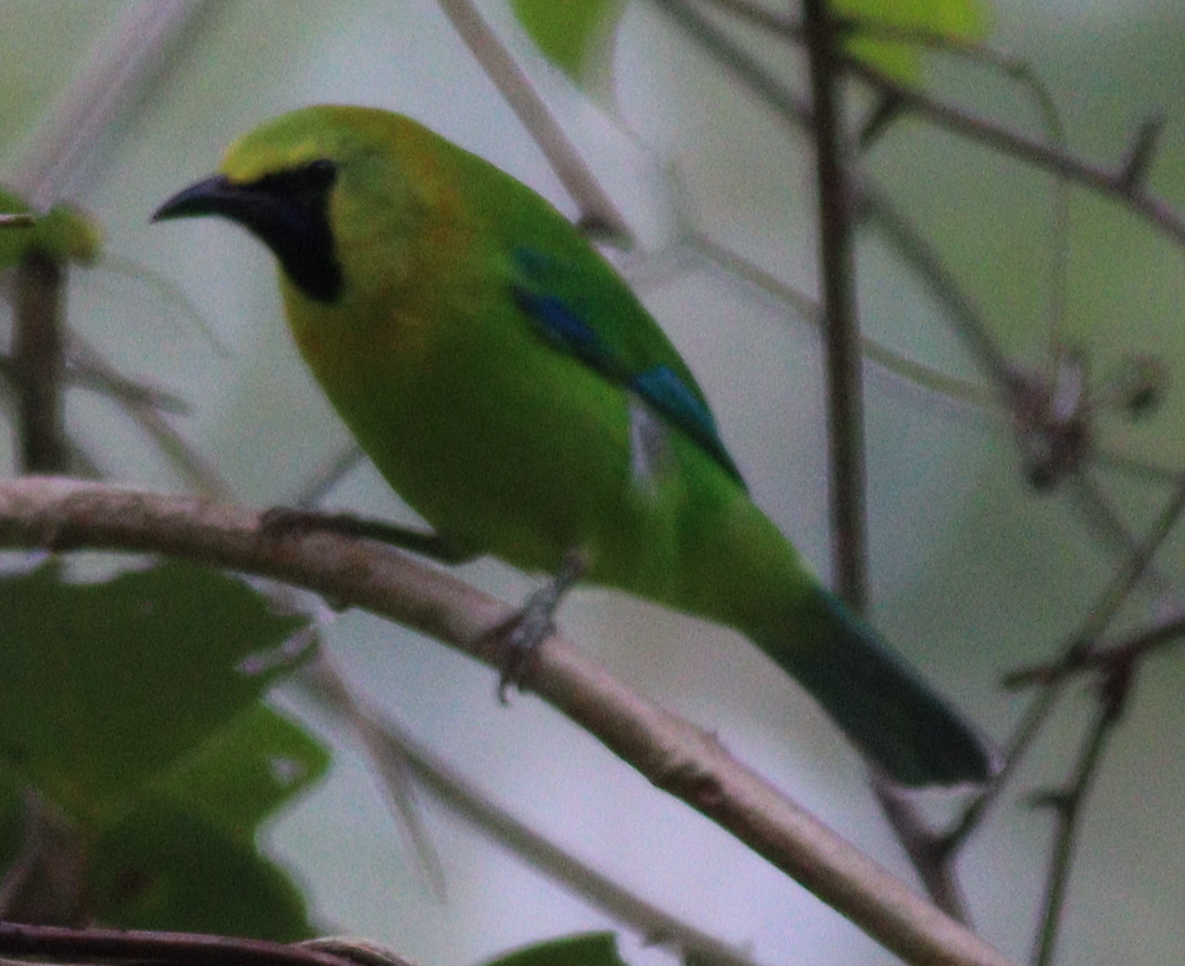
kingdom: Animalia
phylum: Chordata
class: Aves
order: Passeriformes
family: Chloropseidae
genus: Chloropsis
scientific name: Chloropsis moluccensis
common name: Blue-winged leafbird
